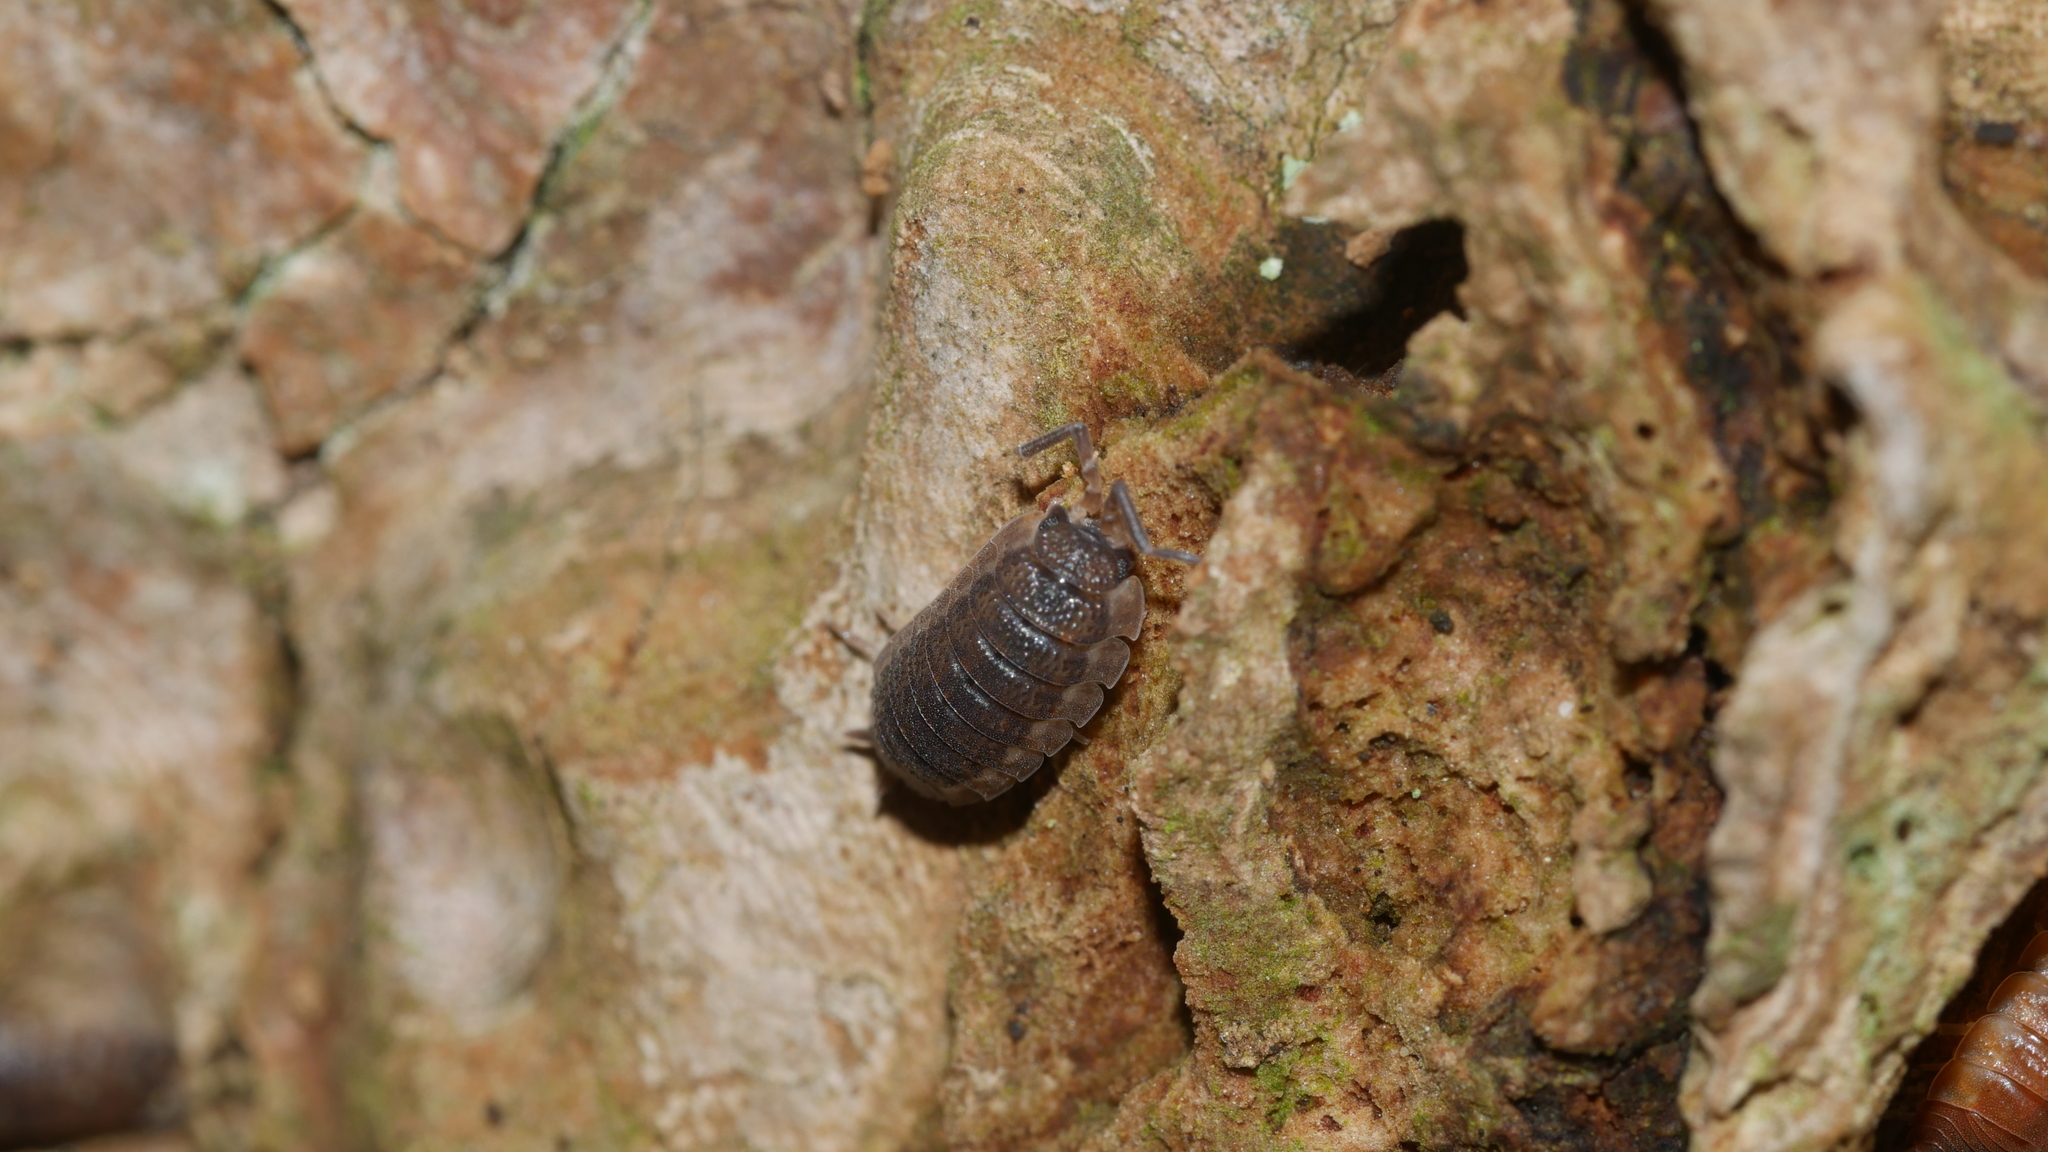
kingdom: Animalia
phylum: Arthropoda
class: Malacostraca
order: Isopoda
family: Porcellionidae
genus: Porcellio
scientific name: Porcellio scaber
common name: Common rough woodlouse
